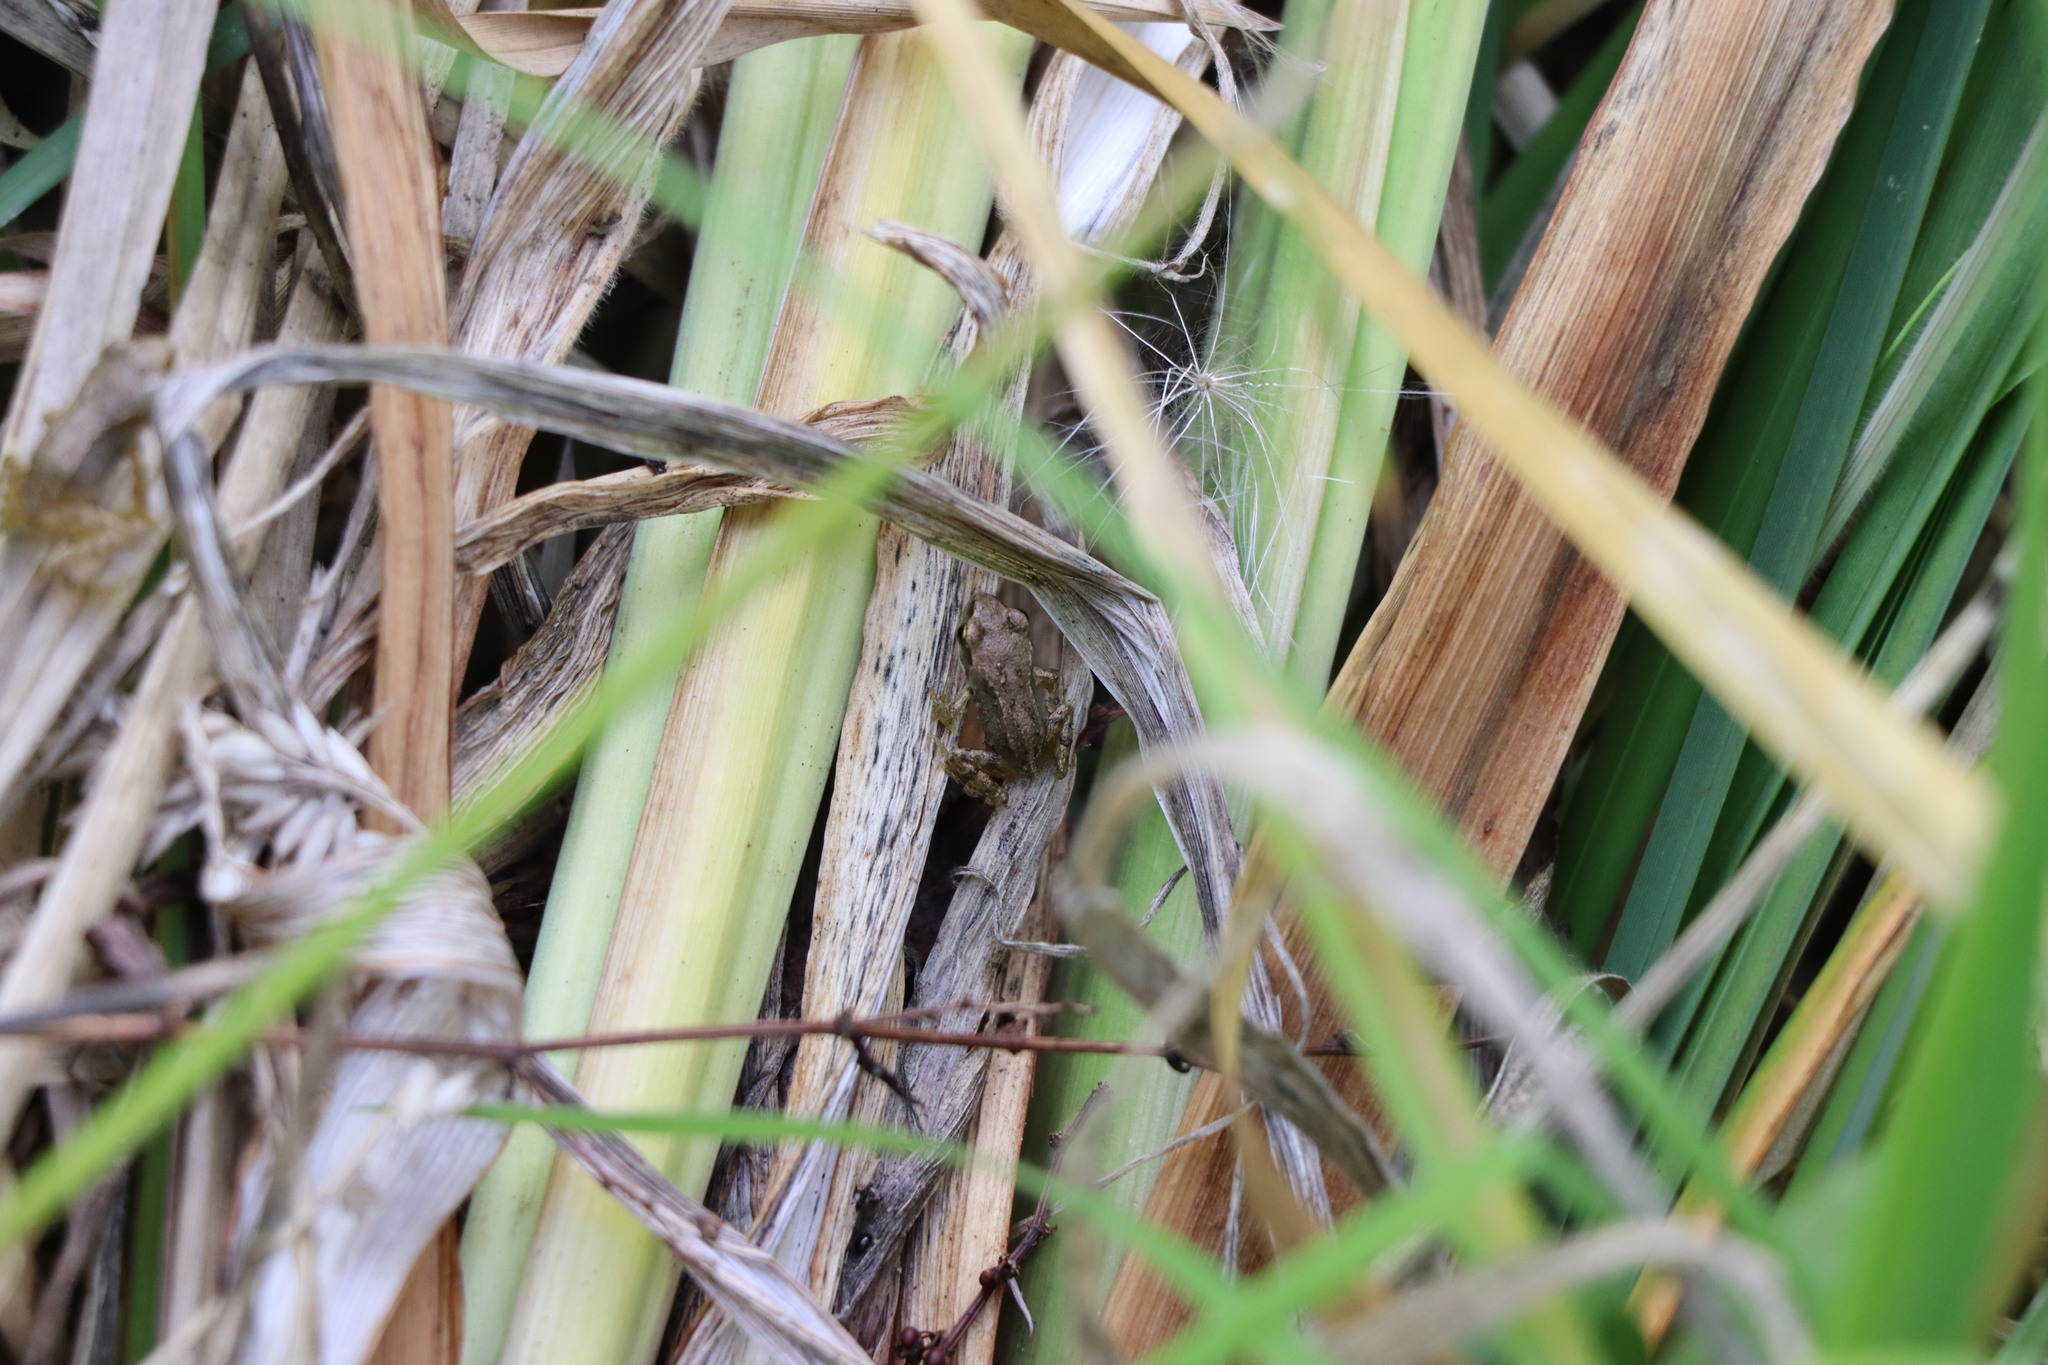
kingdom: Animalia
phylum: Chordata
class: Amphibia
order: Anura
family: Ranidae
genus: Rana
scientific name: Rana temporaria
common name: Common frog
